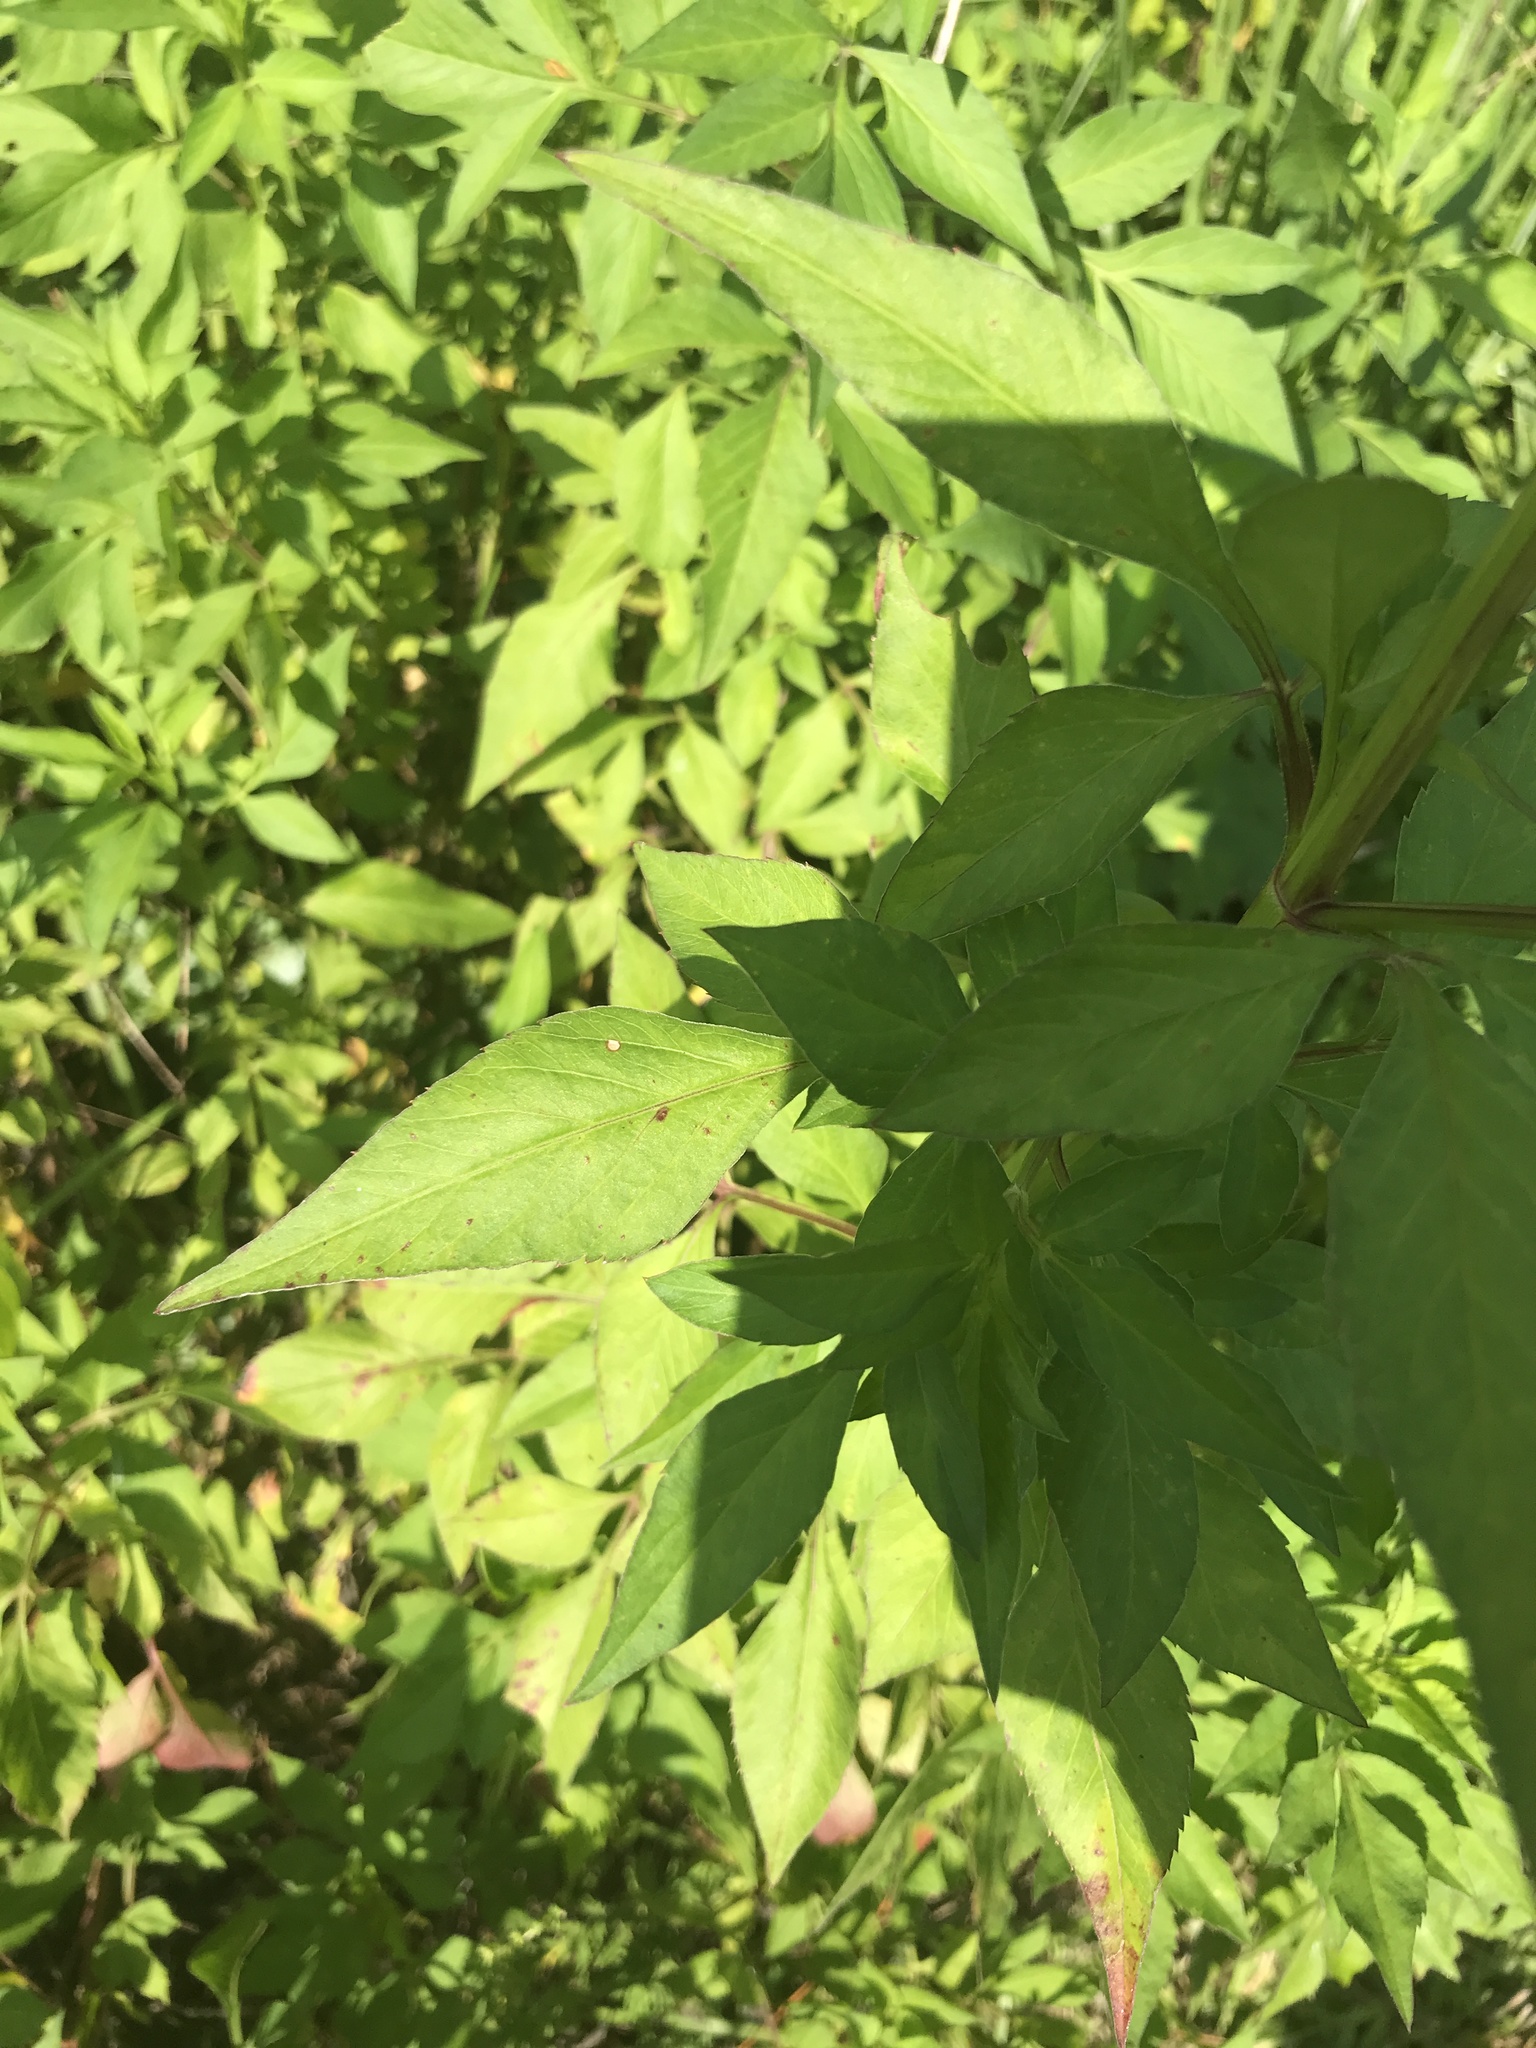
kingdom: Plantae
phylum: Tracheophyta
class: Magnoliopsida
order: Asterales
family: Asteraceae
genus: Bidens
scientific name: Bidens alba
